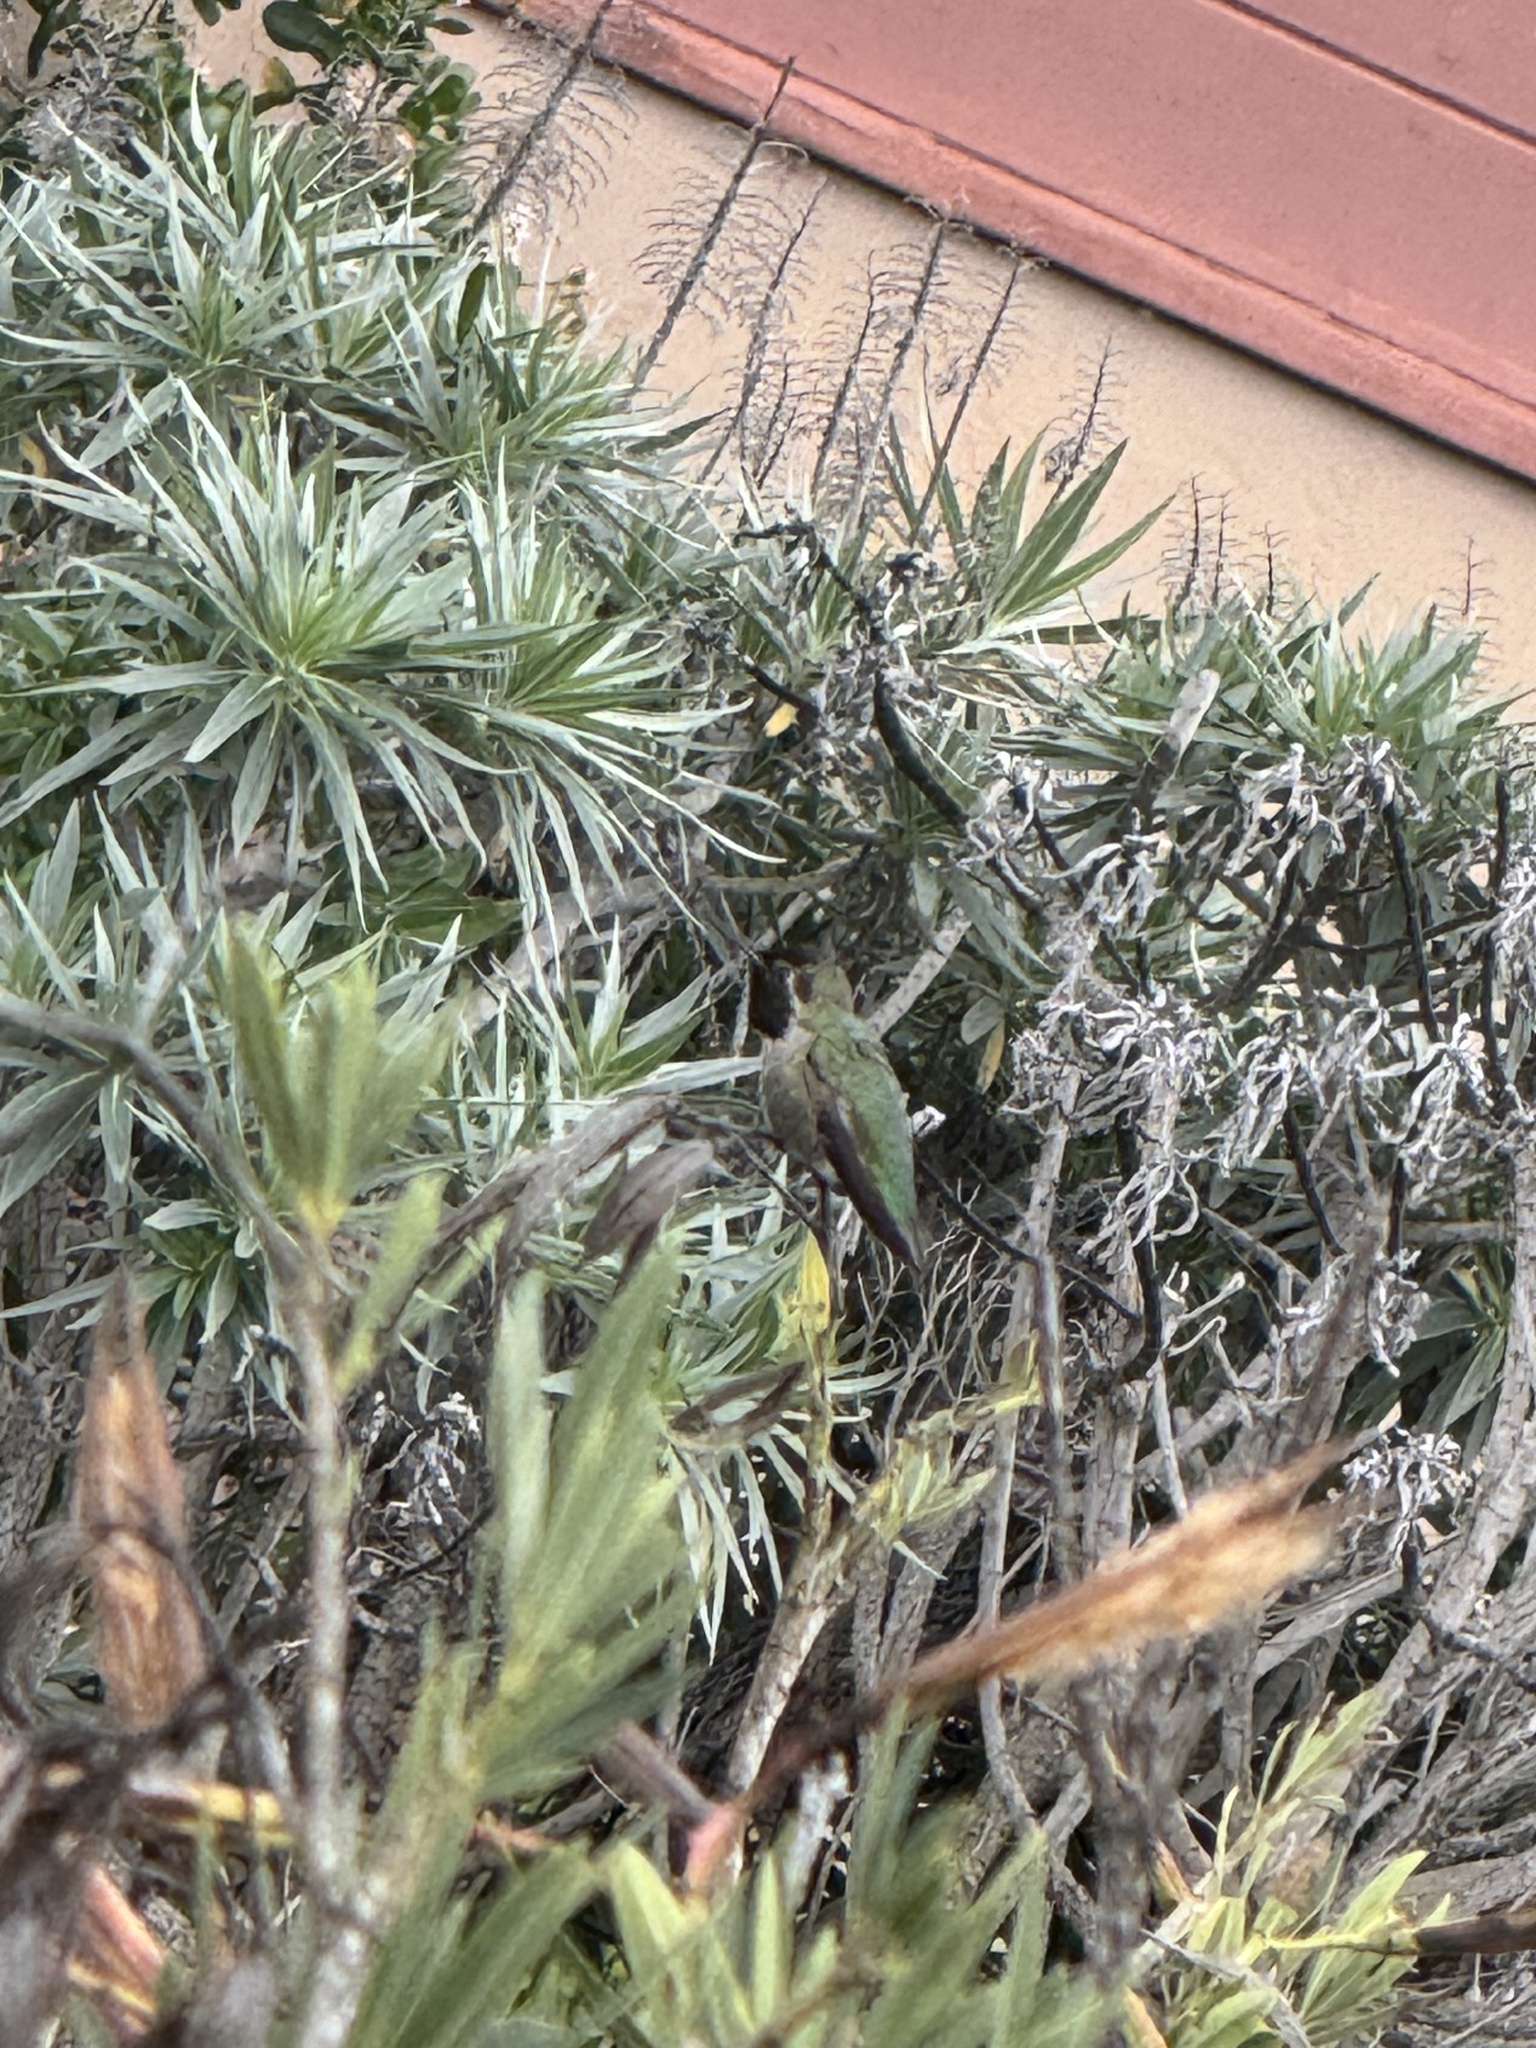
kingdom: Animalia
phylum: Chordata
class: Aves
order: Apodiformes
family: Trochilidae
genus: Calypte
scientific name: Calypte anna
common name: Anna's hummingbird
